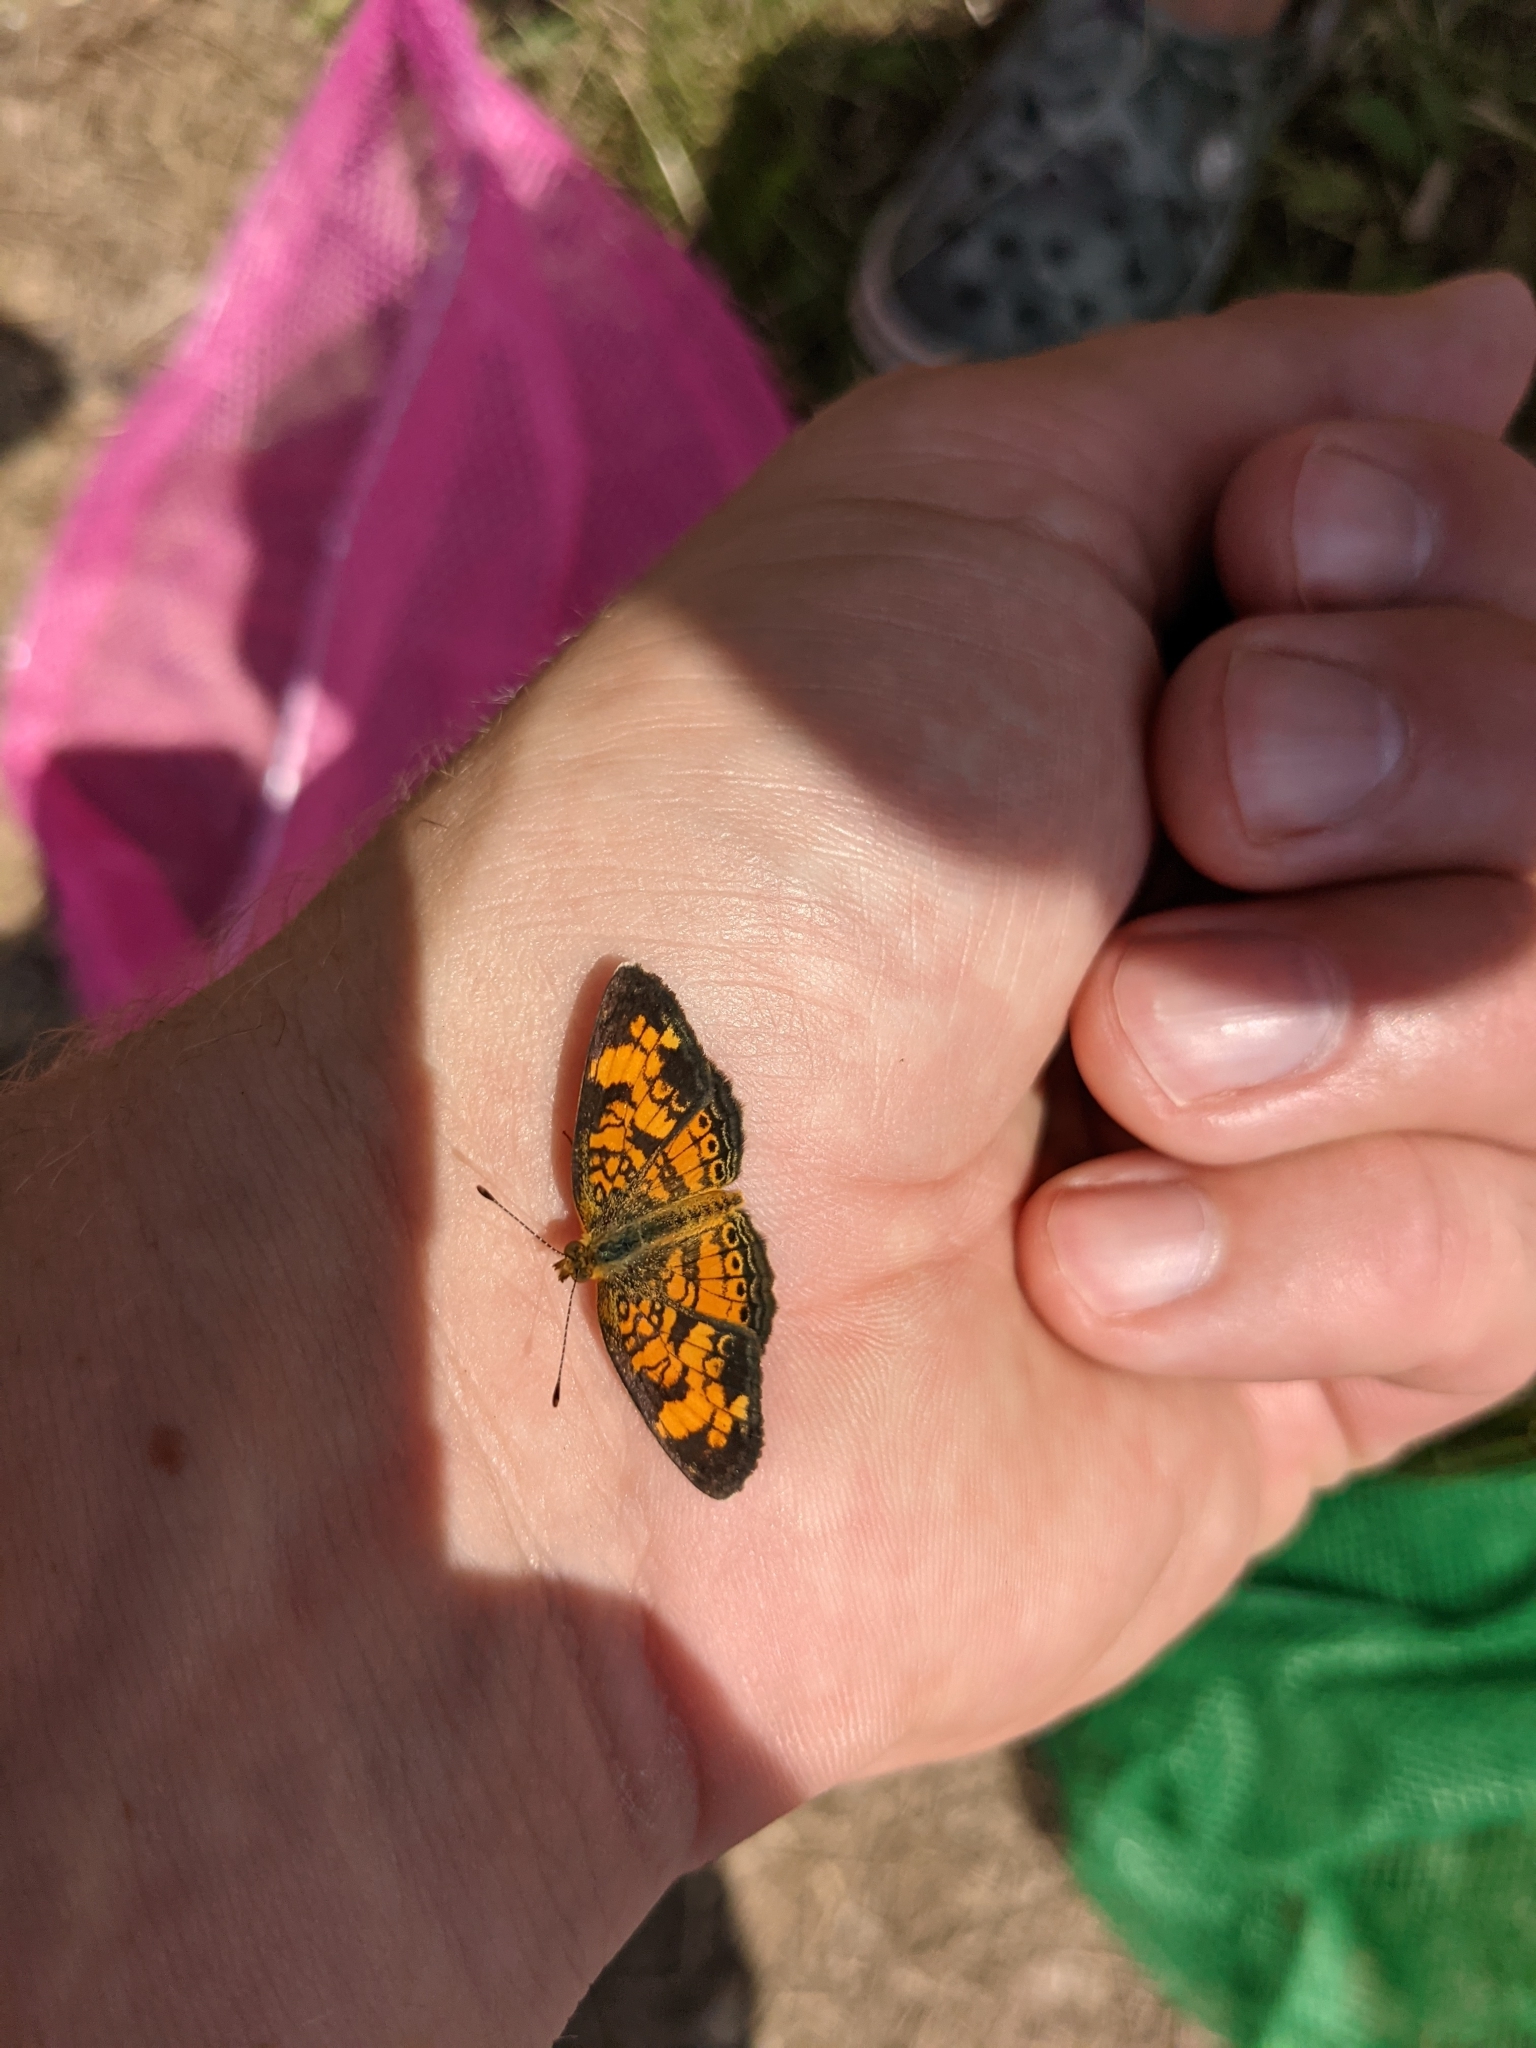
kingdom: Animalia
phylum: Arthropoda
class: Insecta
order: Lepidoptera
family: Nymphalidae
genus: Phyciodes
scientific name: Phyciodes tharos
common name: Pearl crescent
